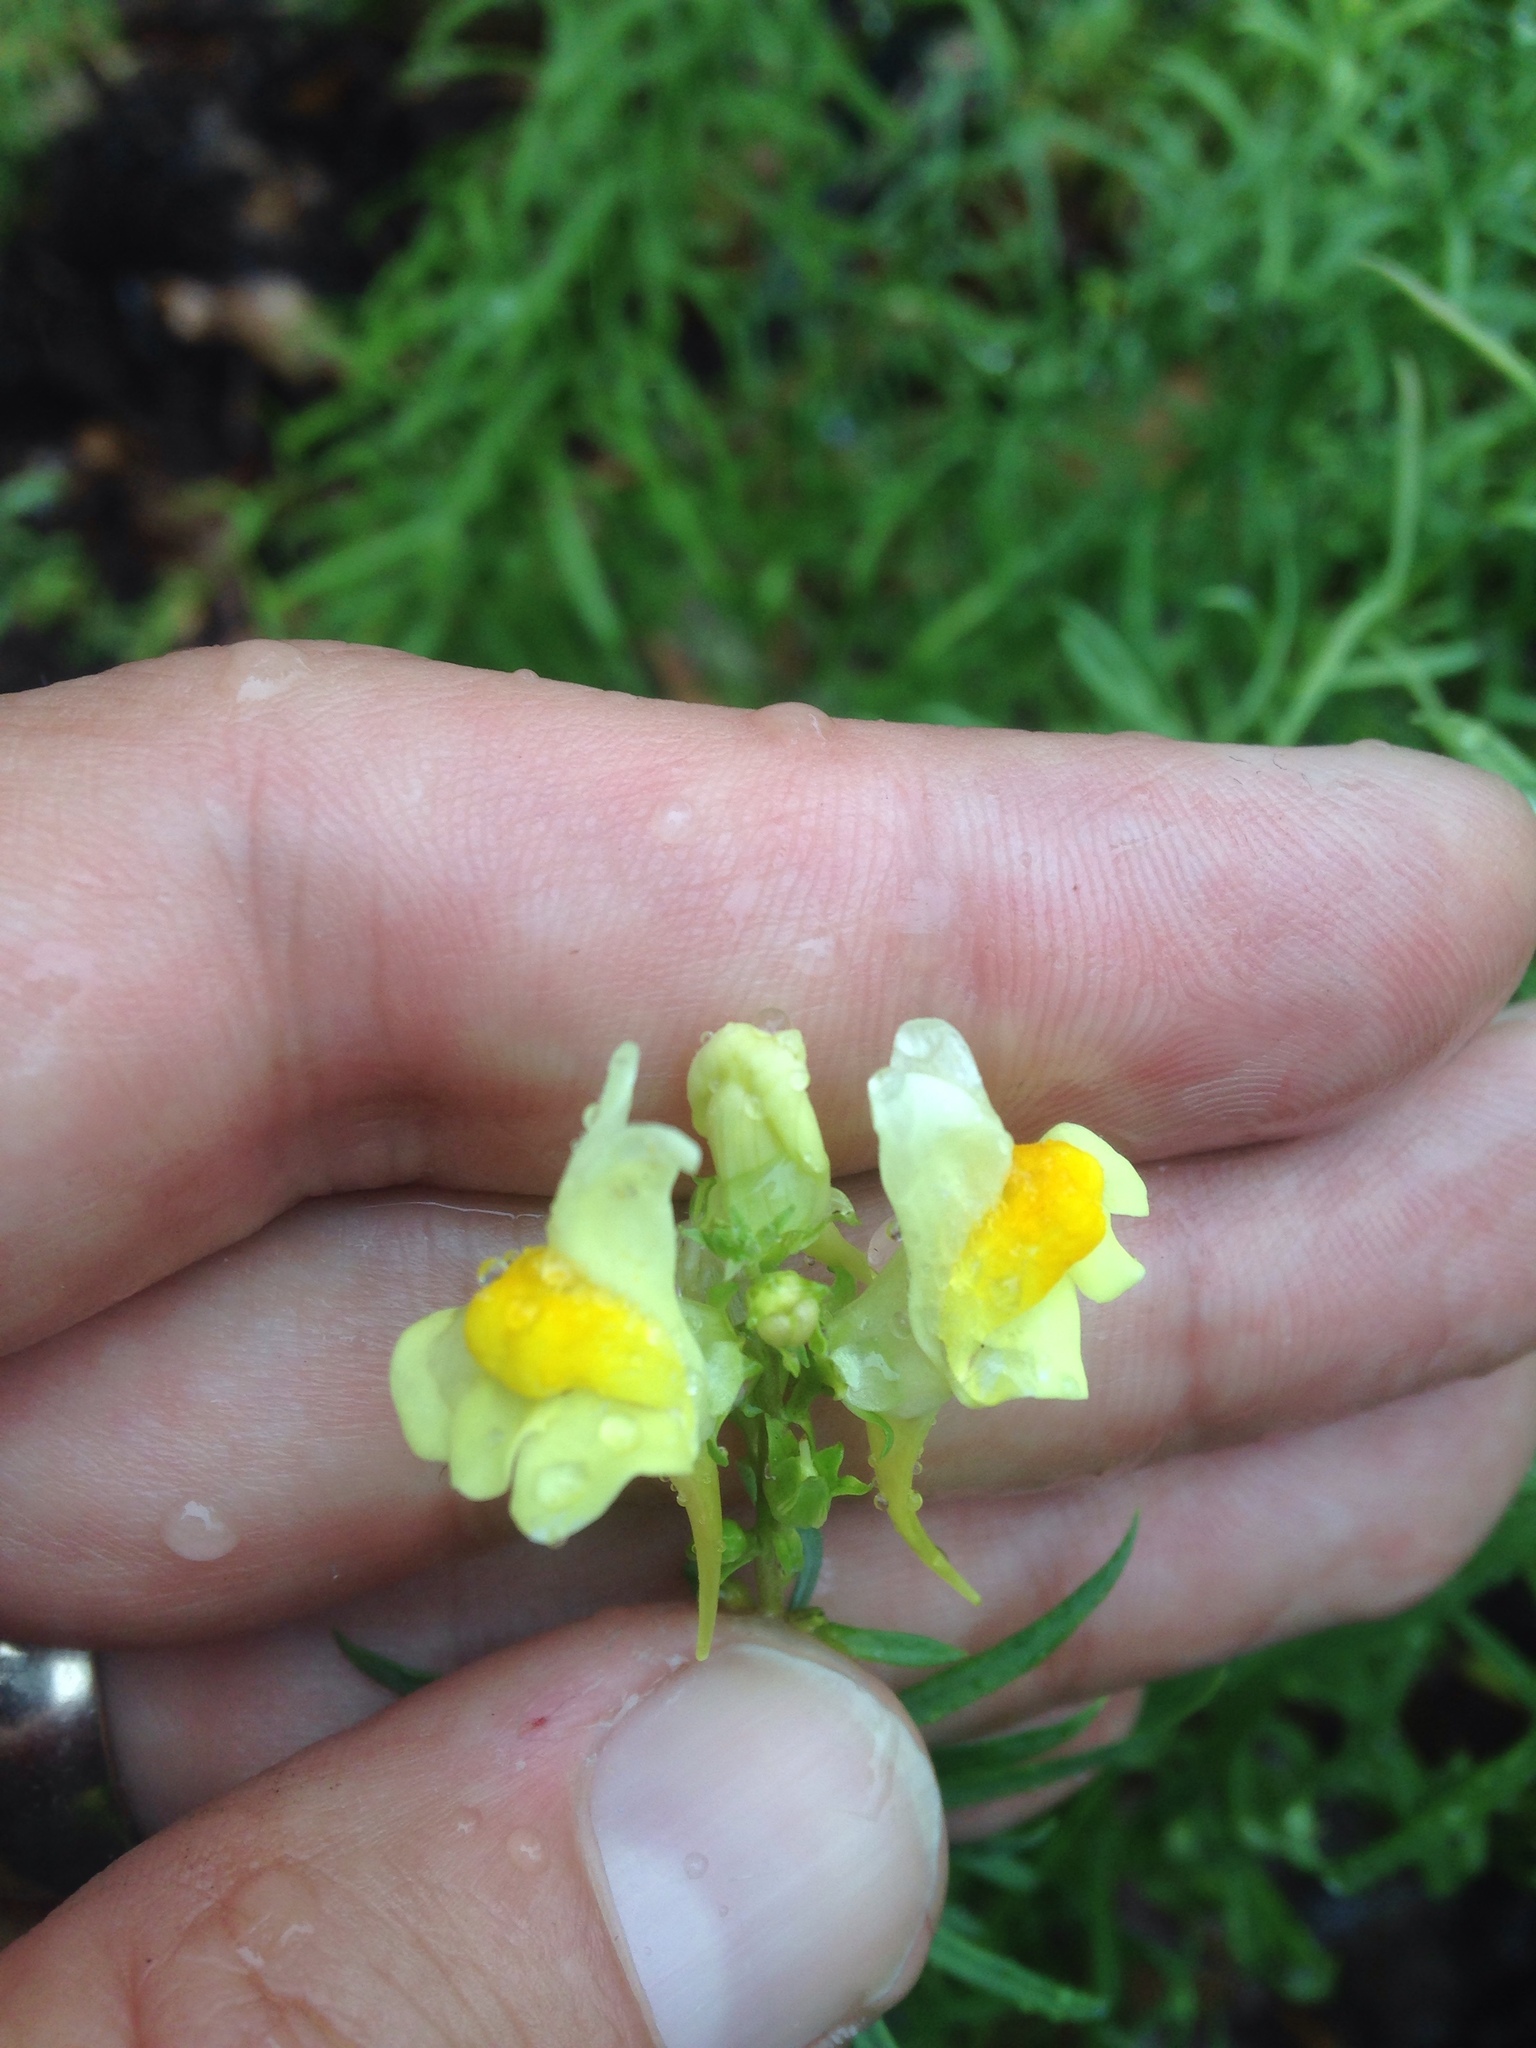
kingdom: Plantae
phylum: Tracheophyta
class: Magnoliopsida
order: Lamiales
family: Plantaginaceae
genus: Linaria
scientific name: Linaria vulgaris
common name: Butter and eggs
